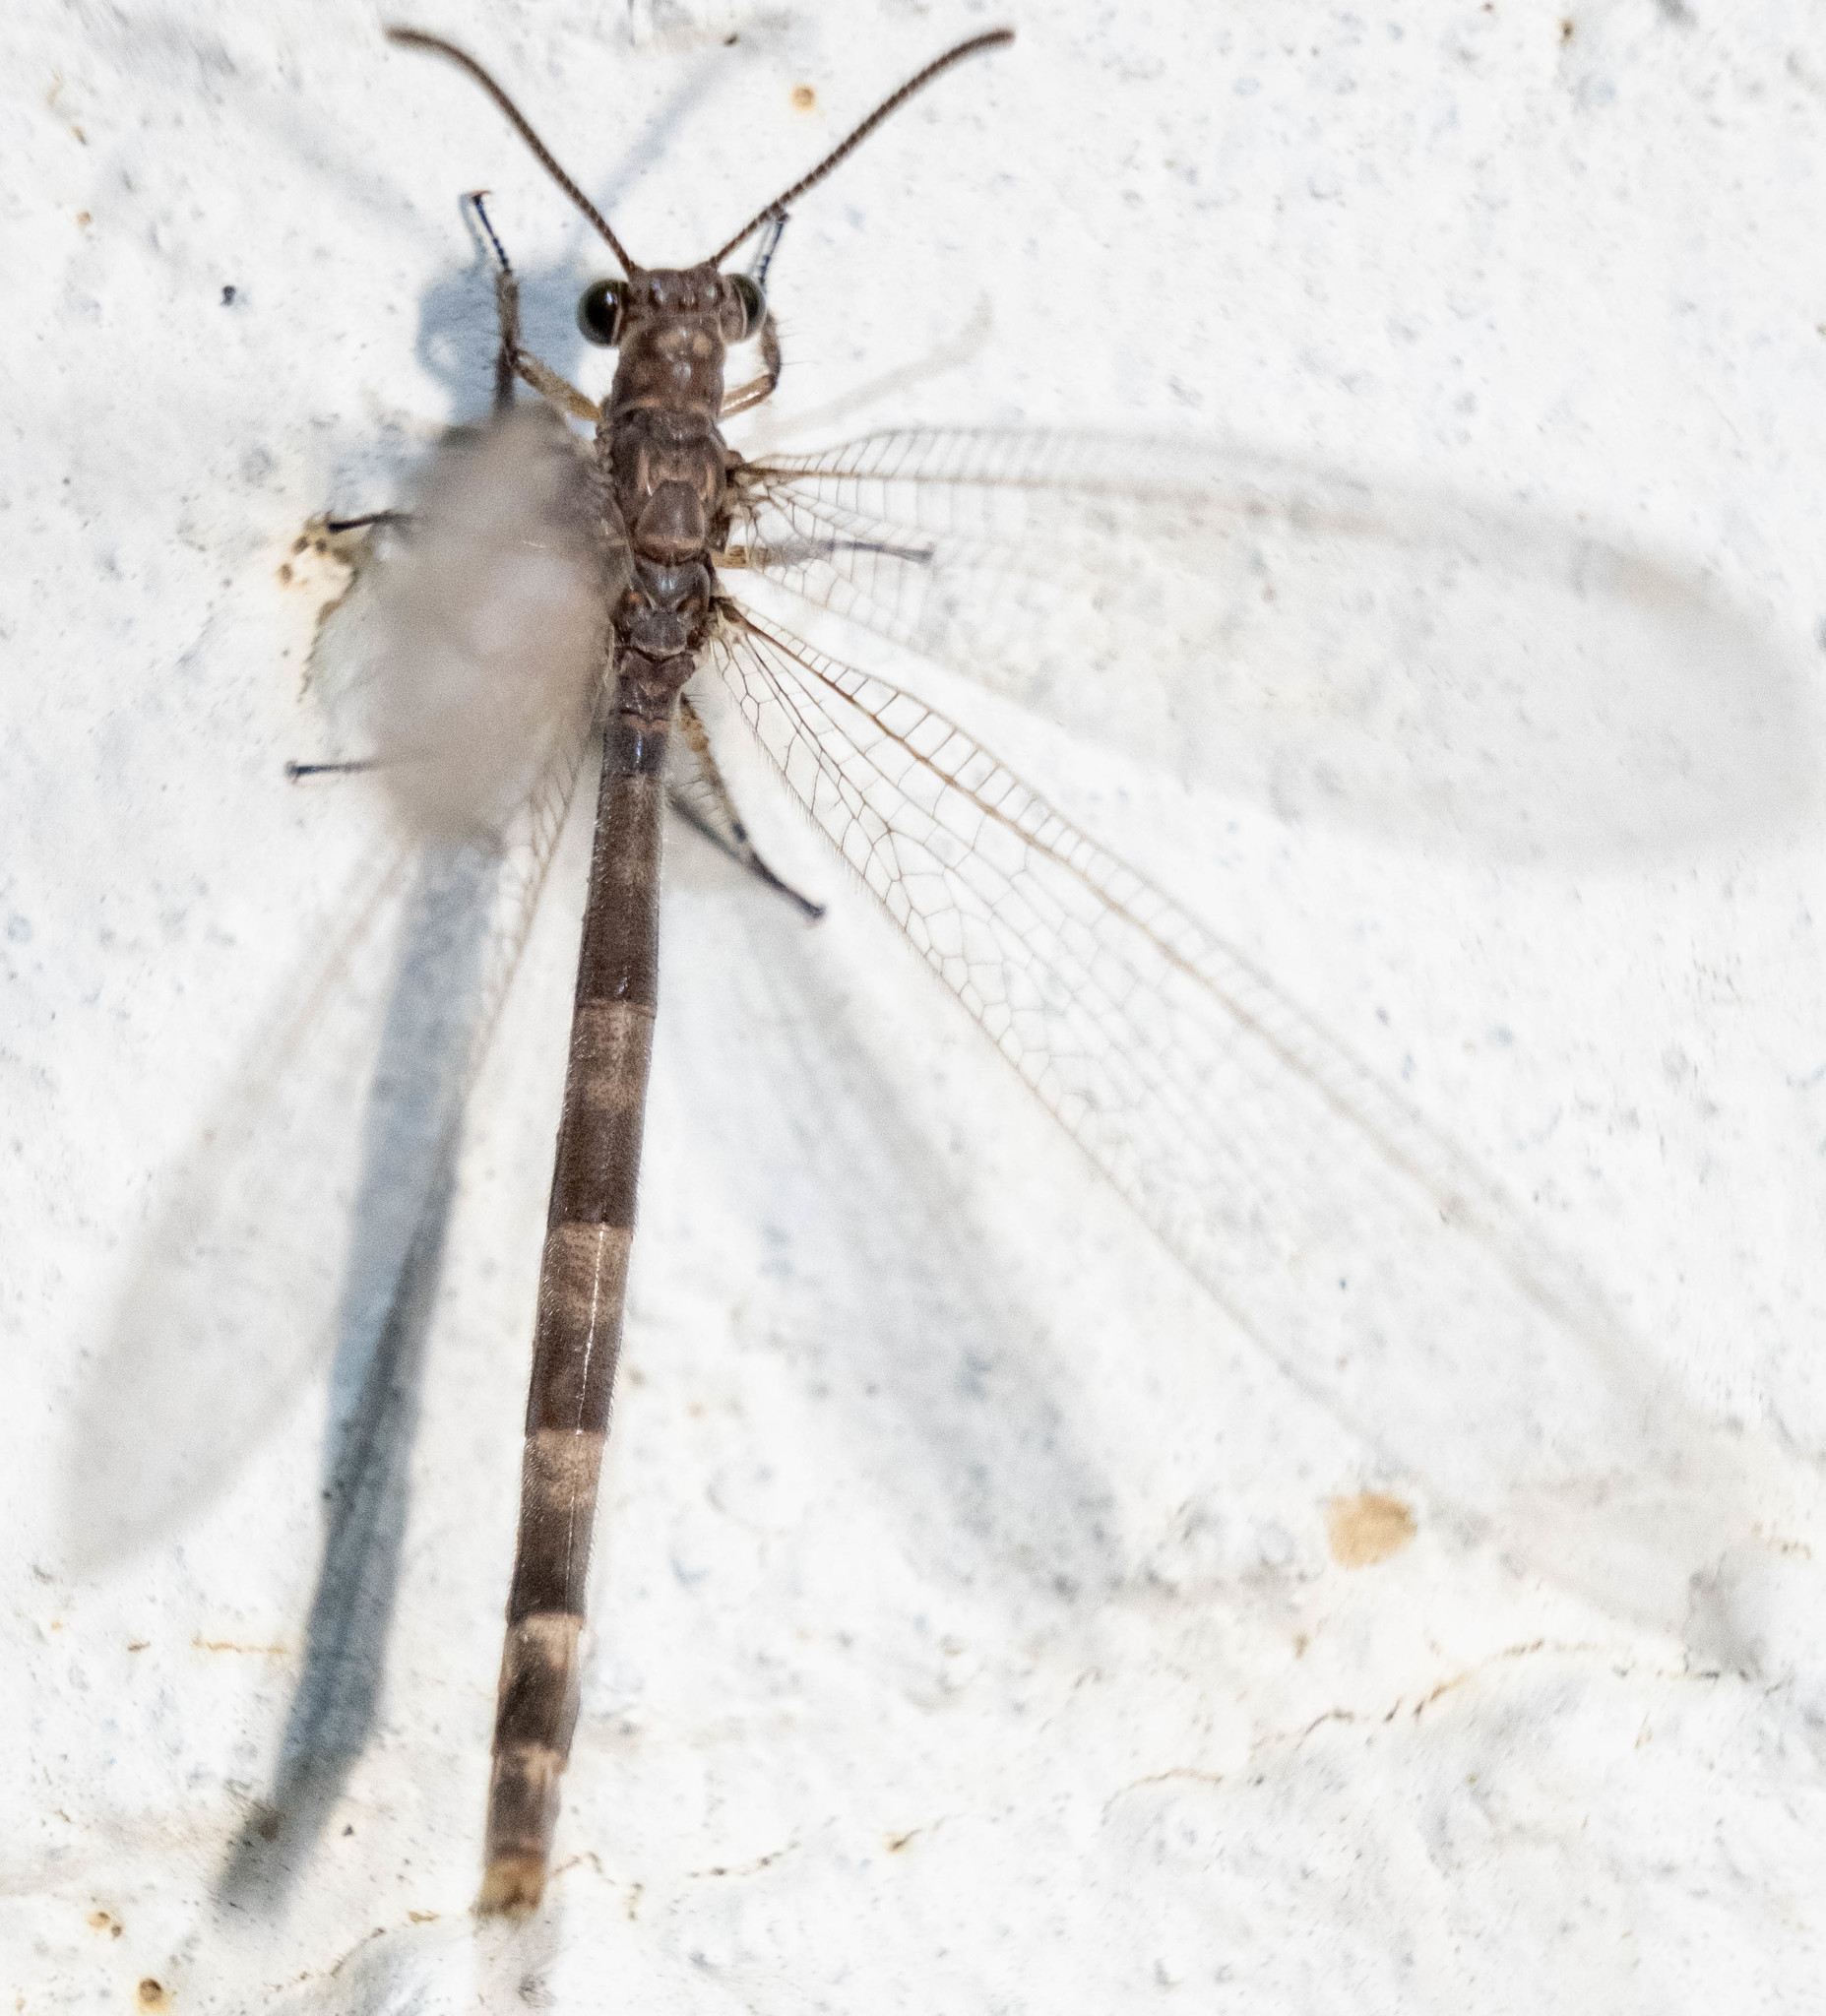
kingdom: Animalia
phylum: Arthropoda
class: Insecta
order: Neuroptera
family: Myrmeleontidae
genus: Myrmeleon
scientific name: Myrmeleon immaculatus
